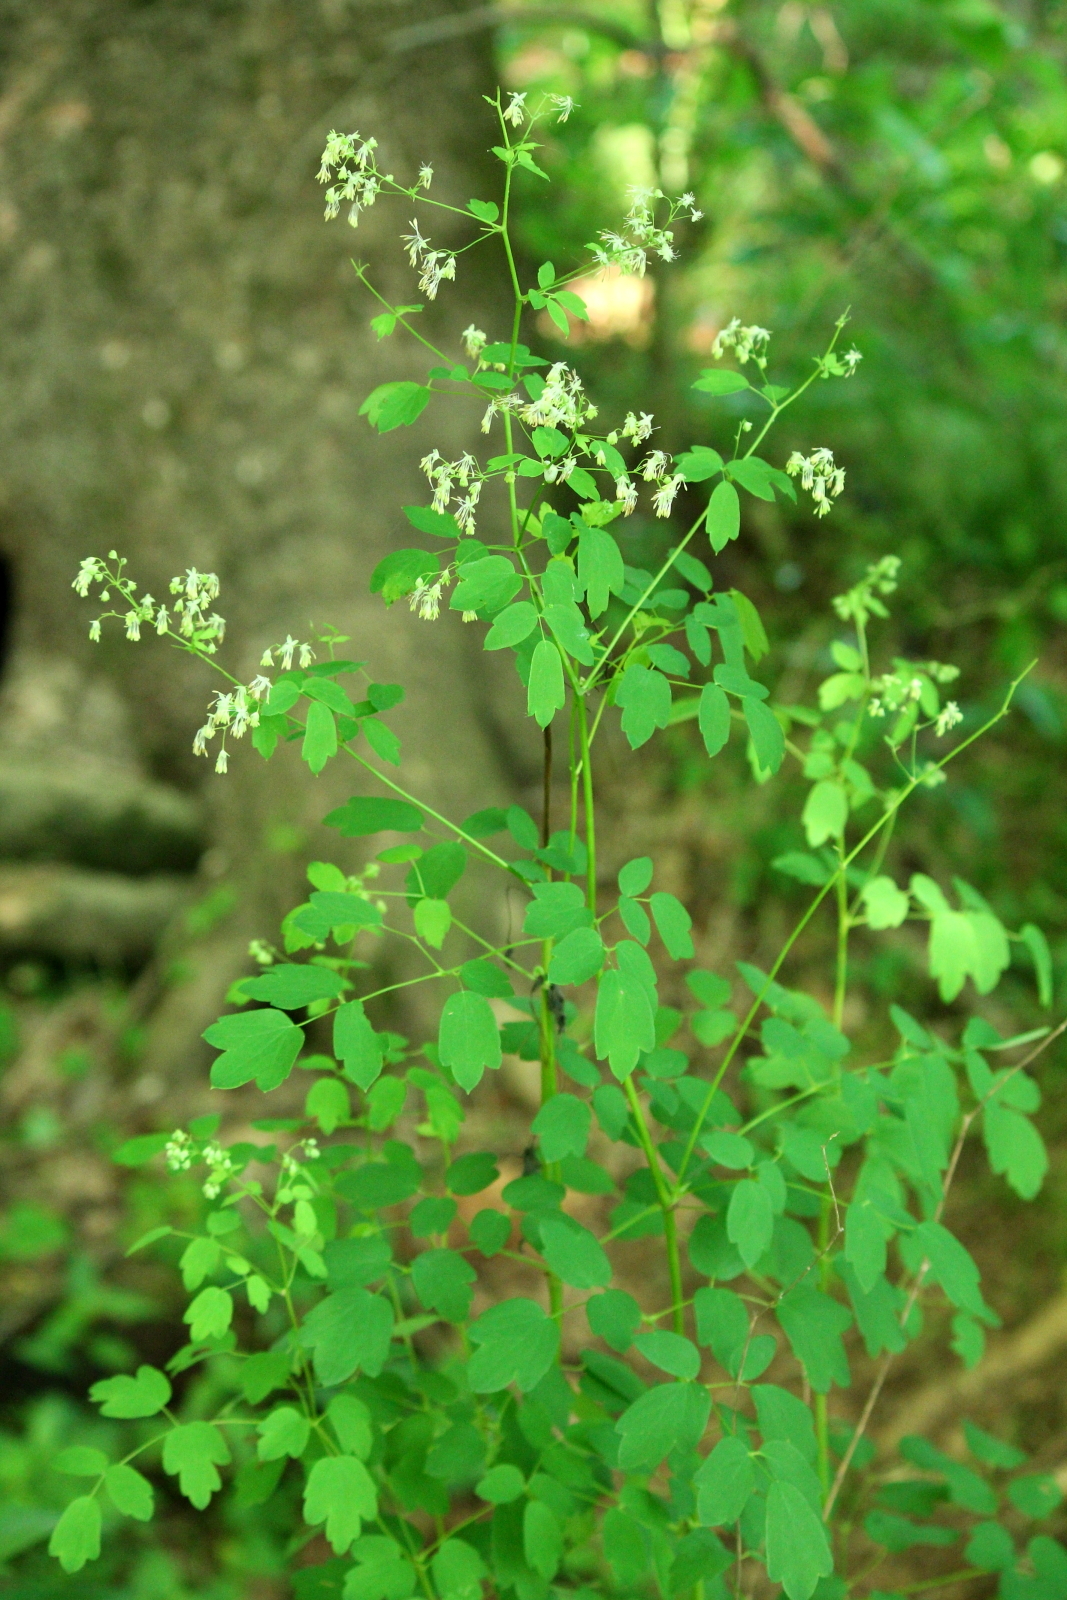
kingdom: Plantae
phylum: Tracheophyta
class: Magnoliopsida
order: Ranunculales
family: Ranunculaceae
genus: Thalictrum
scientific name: Thalictrum revolutum
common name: Waxy meadow-rue
